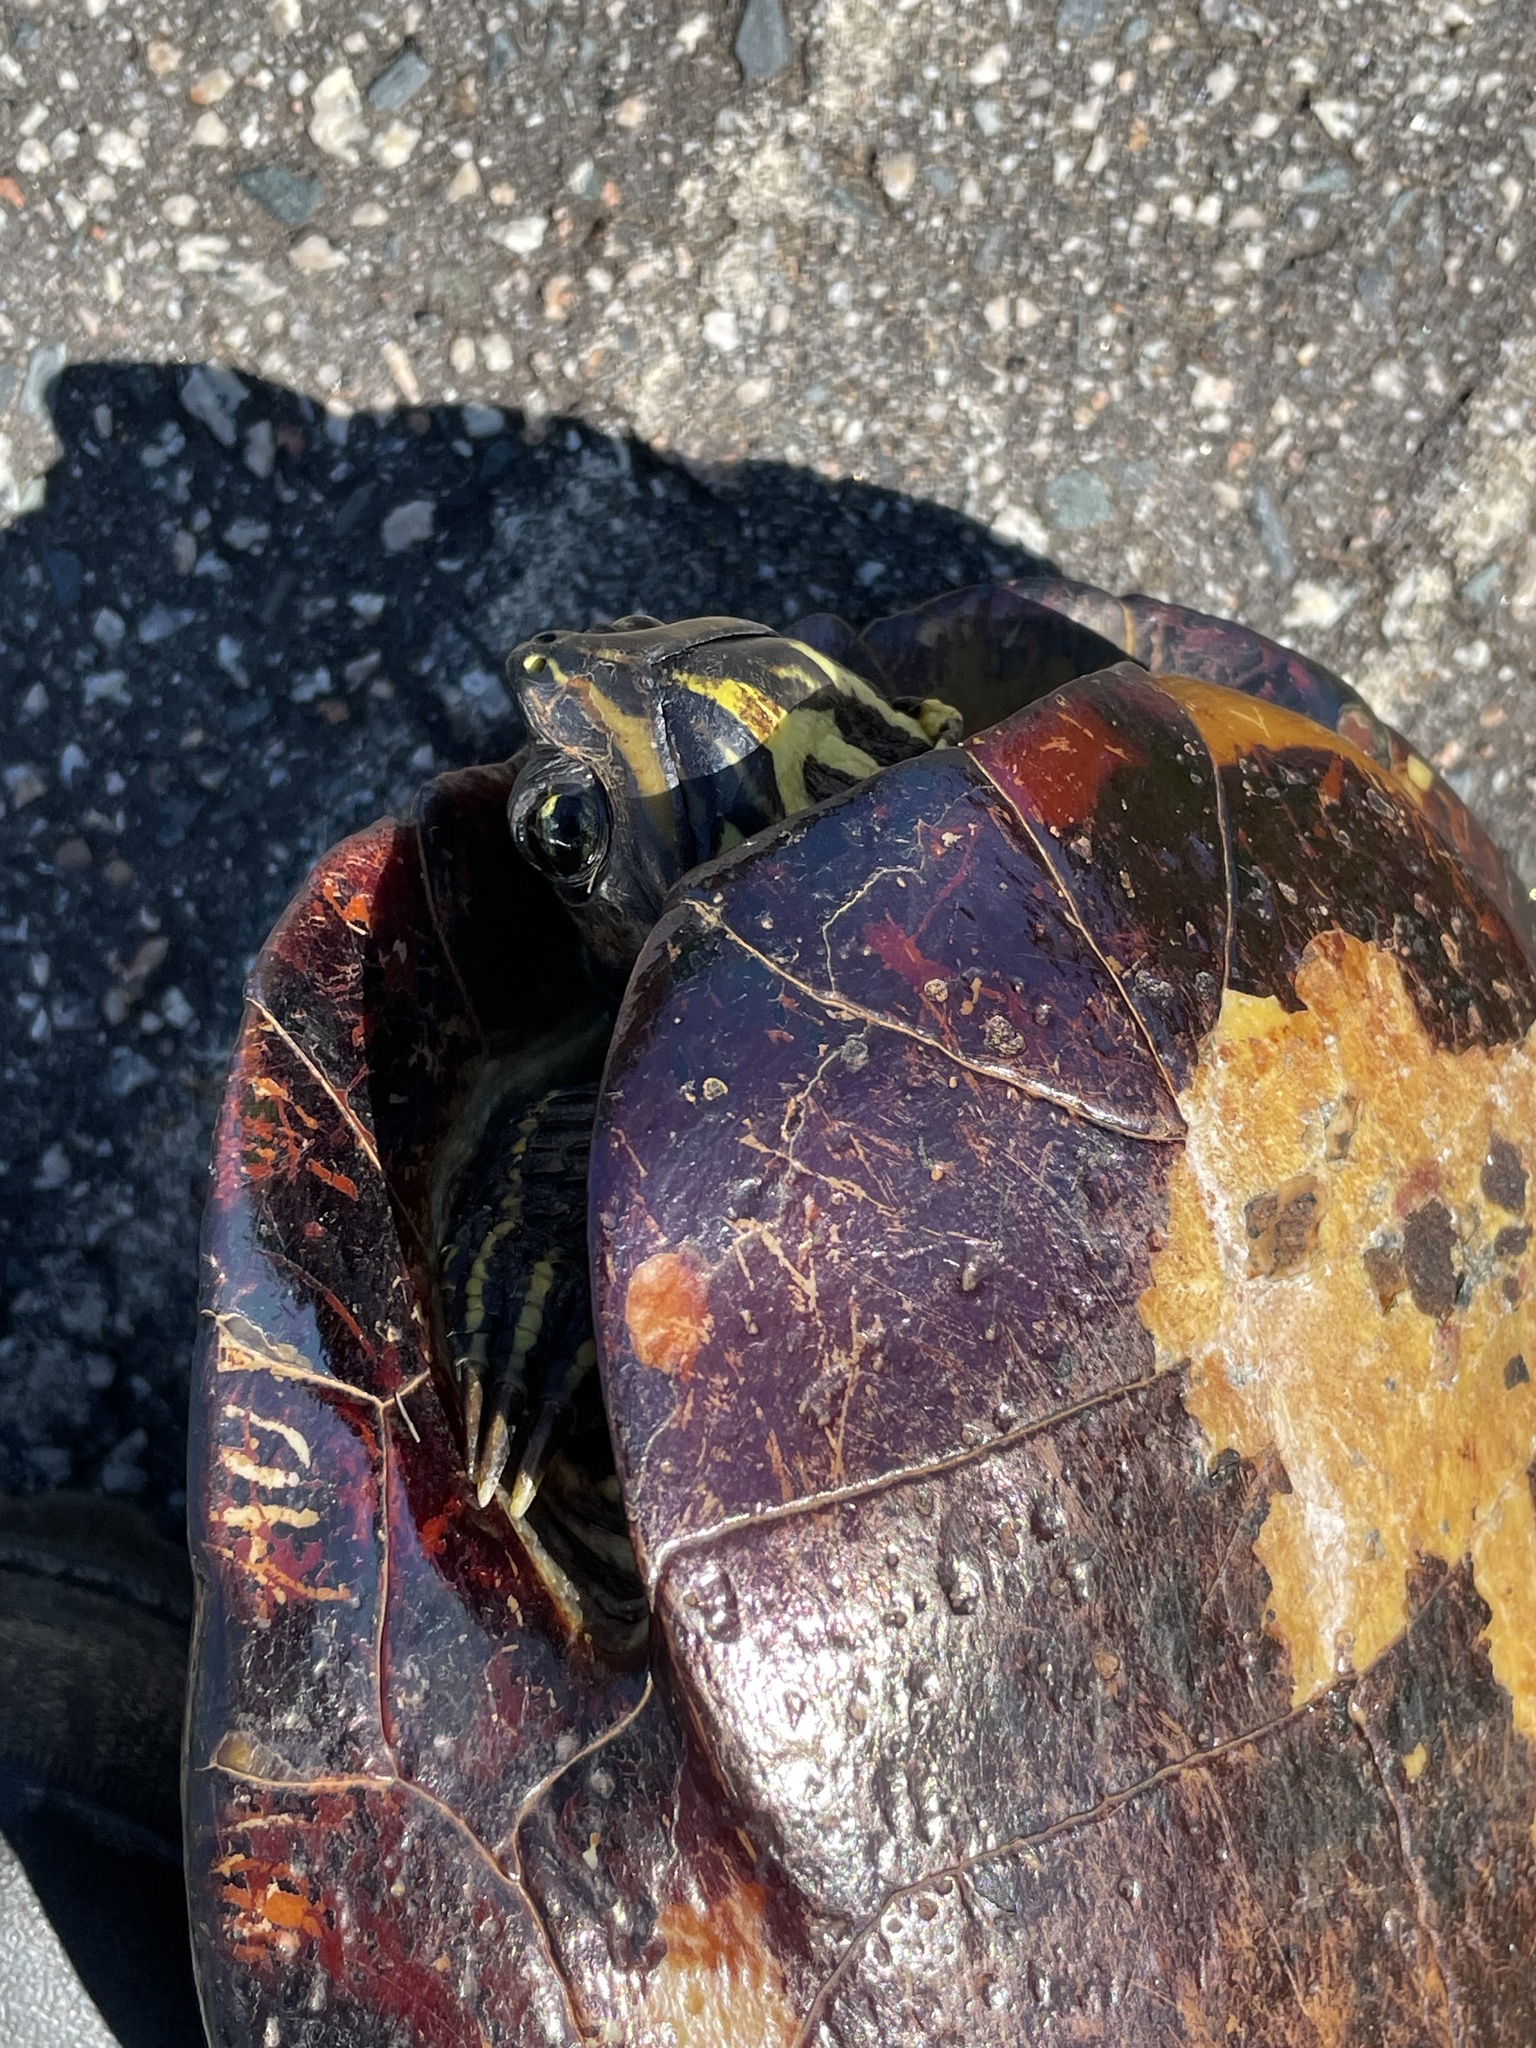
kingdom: Animalia
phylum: Chordata
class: Testudines
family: Emydidae
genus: Trachemys
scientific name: Trachemys scripta
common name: Slider
